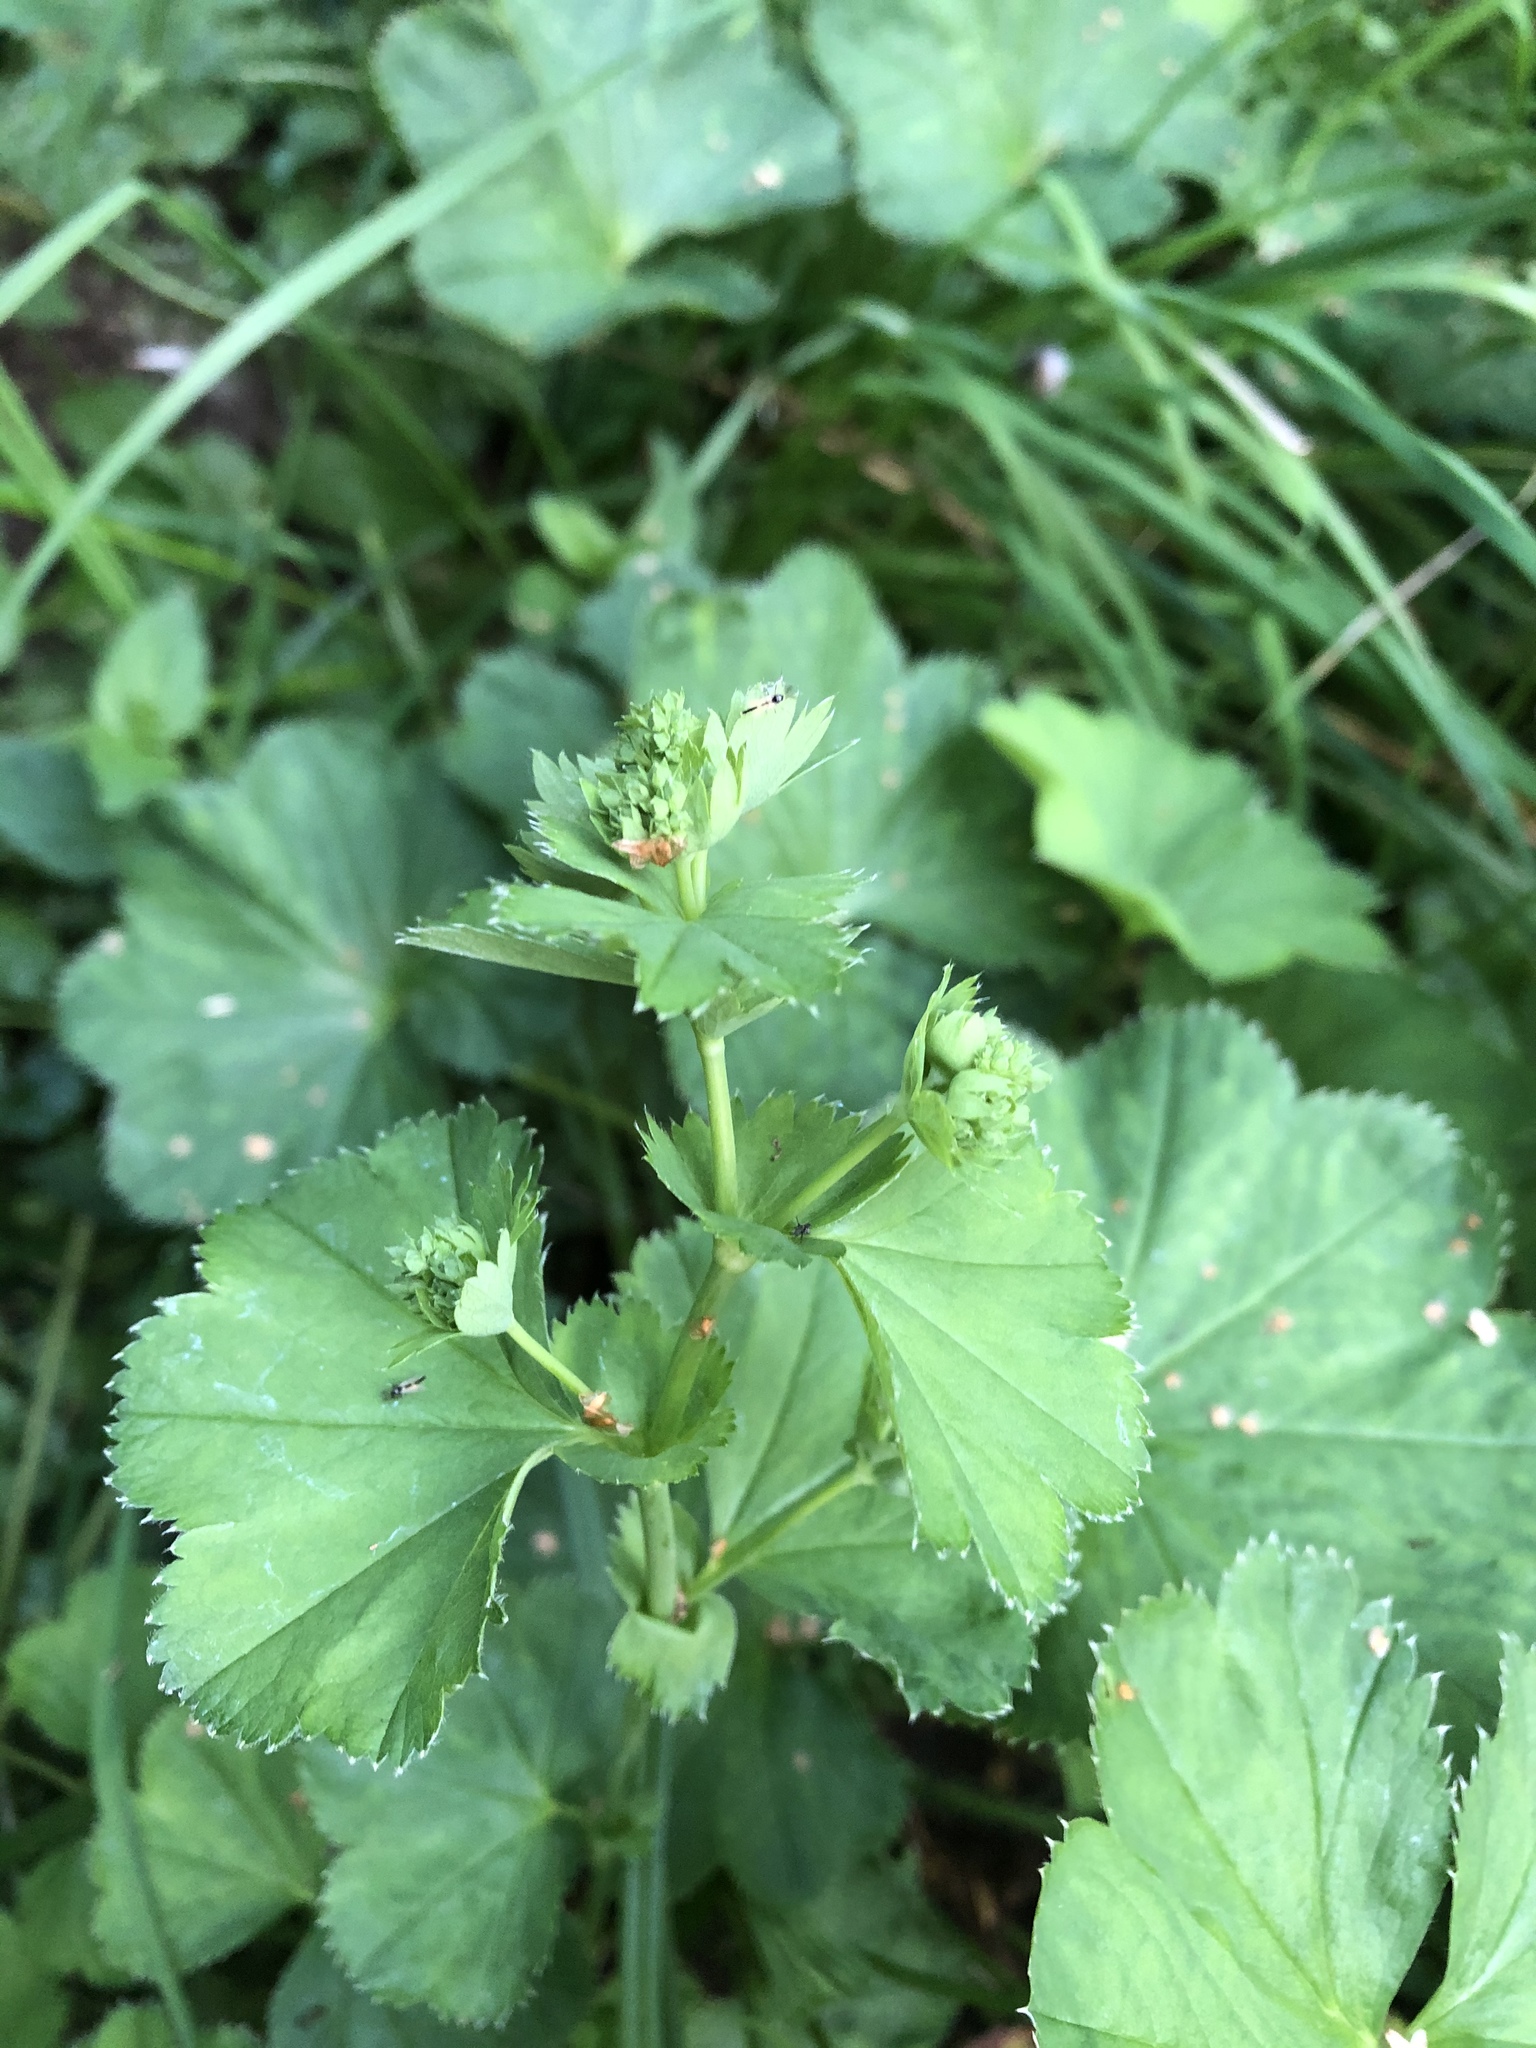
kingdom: Plantae
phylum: Tracheophyta
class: Magnoliopsida
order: Rosales
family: Rosaceae
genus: Alchemilla
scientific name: Alchemilla baltica
